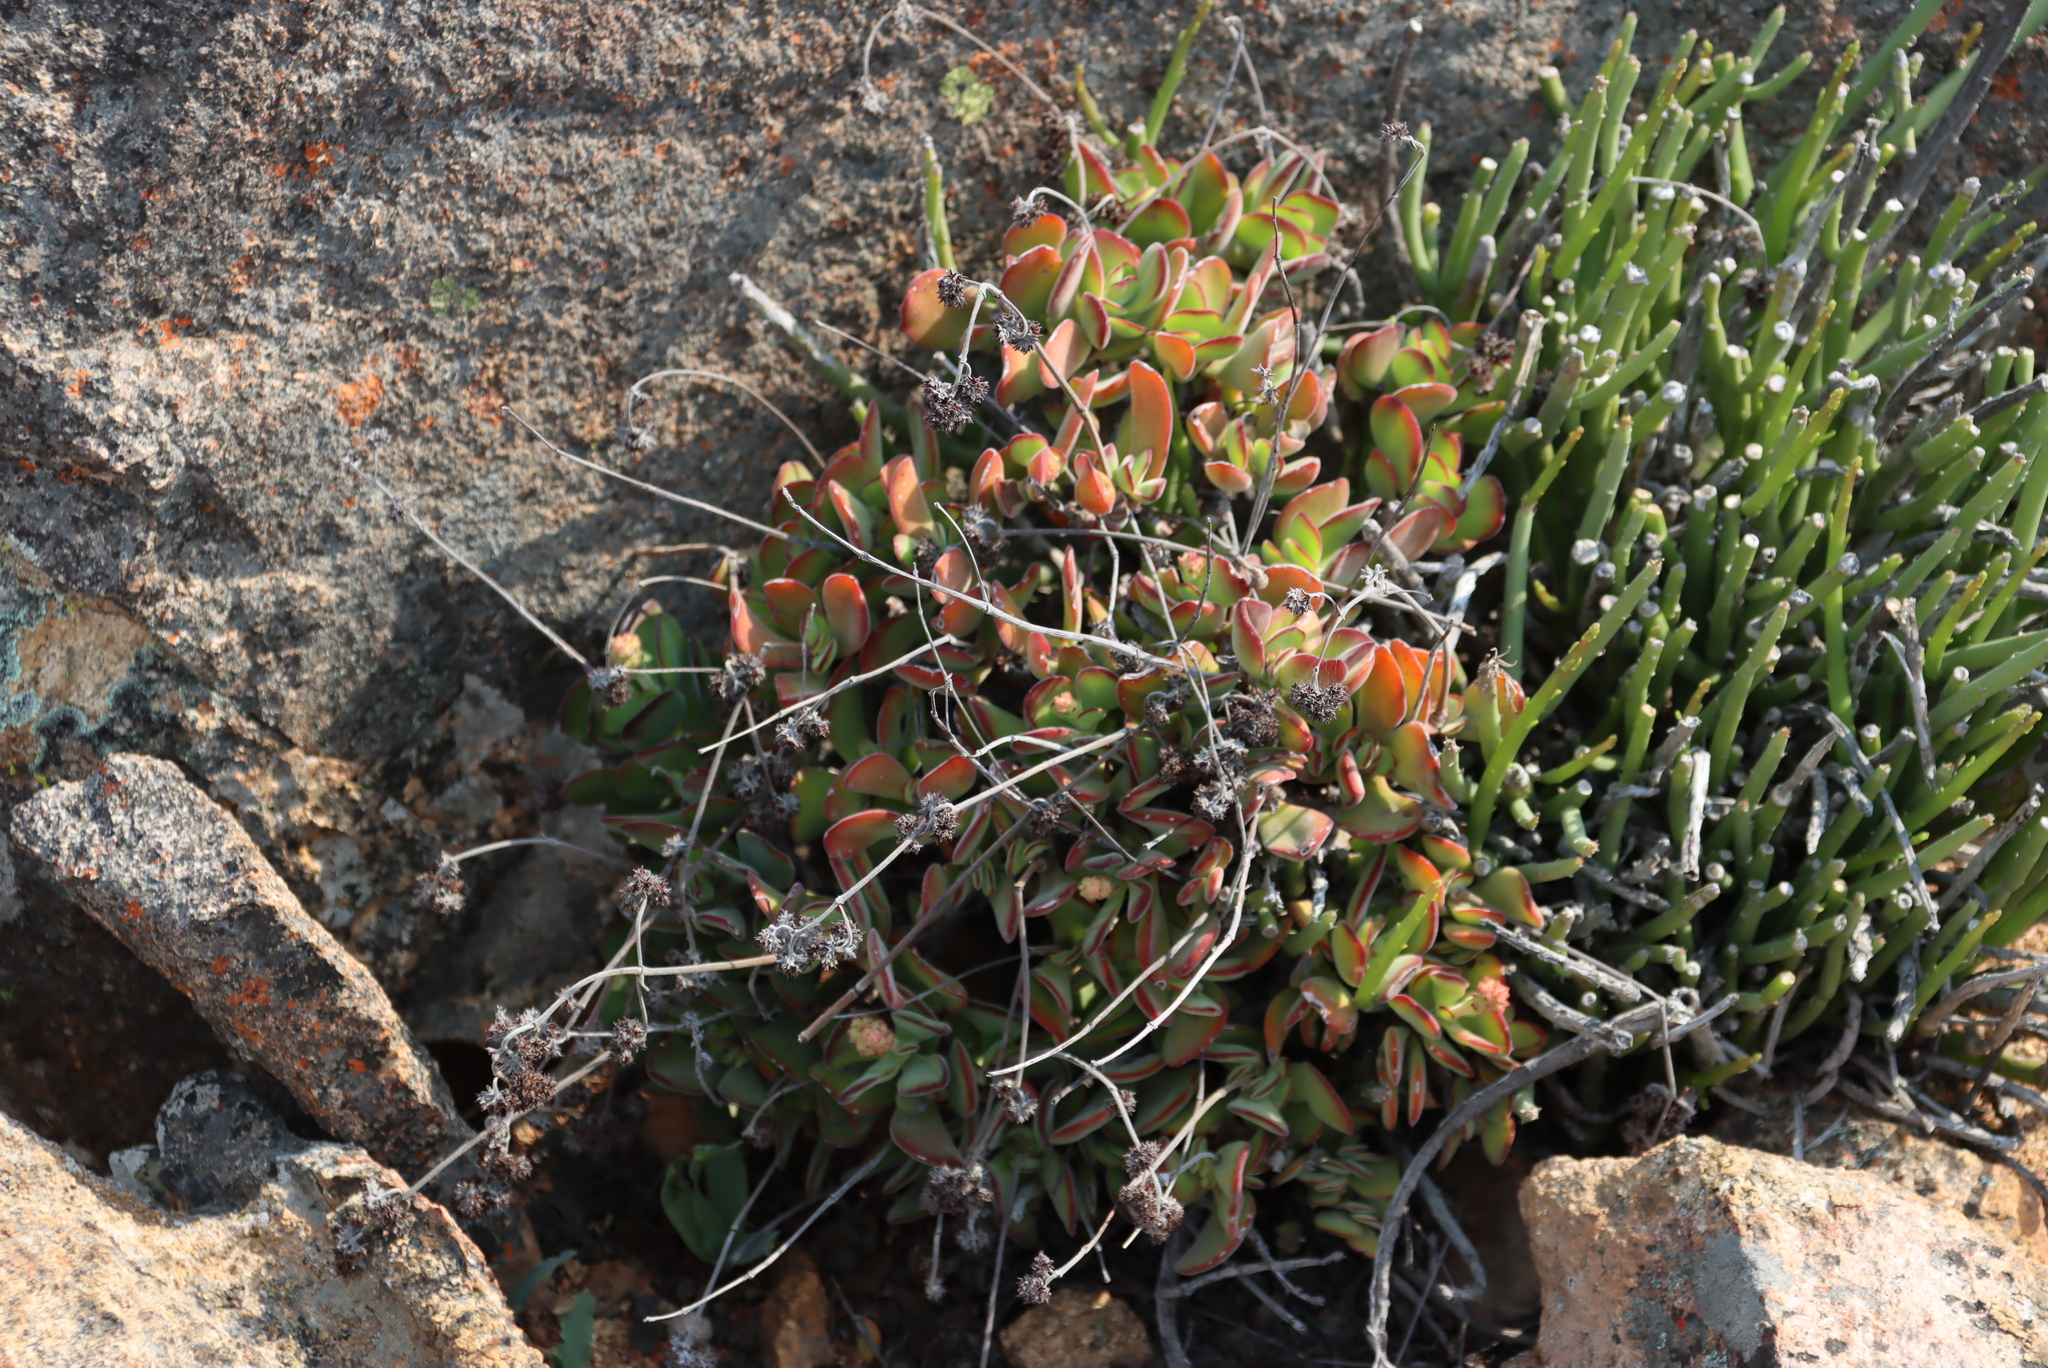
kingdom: Plantae
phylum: Tracheophyta
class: Magnoliopsida
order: Saxifragales
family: Crassulaceae
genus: Crassula
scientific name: Crassula atropurpurea
